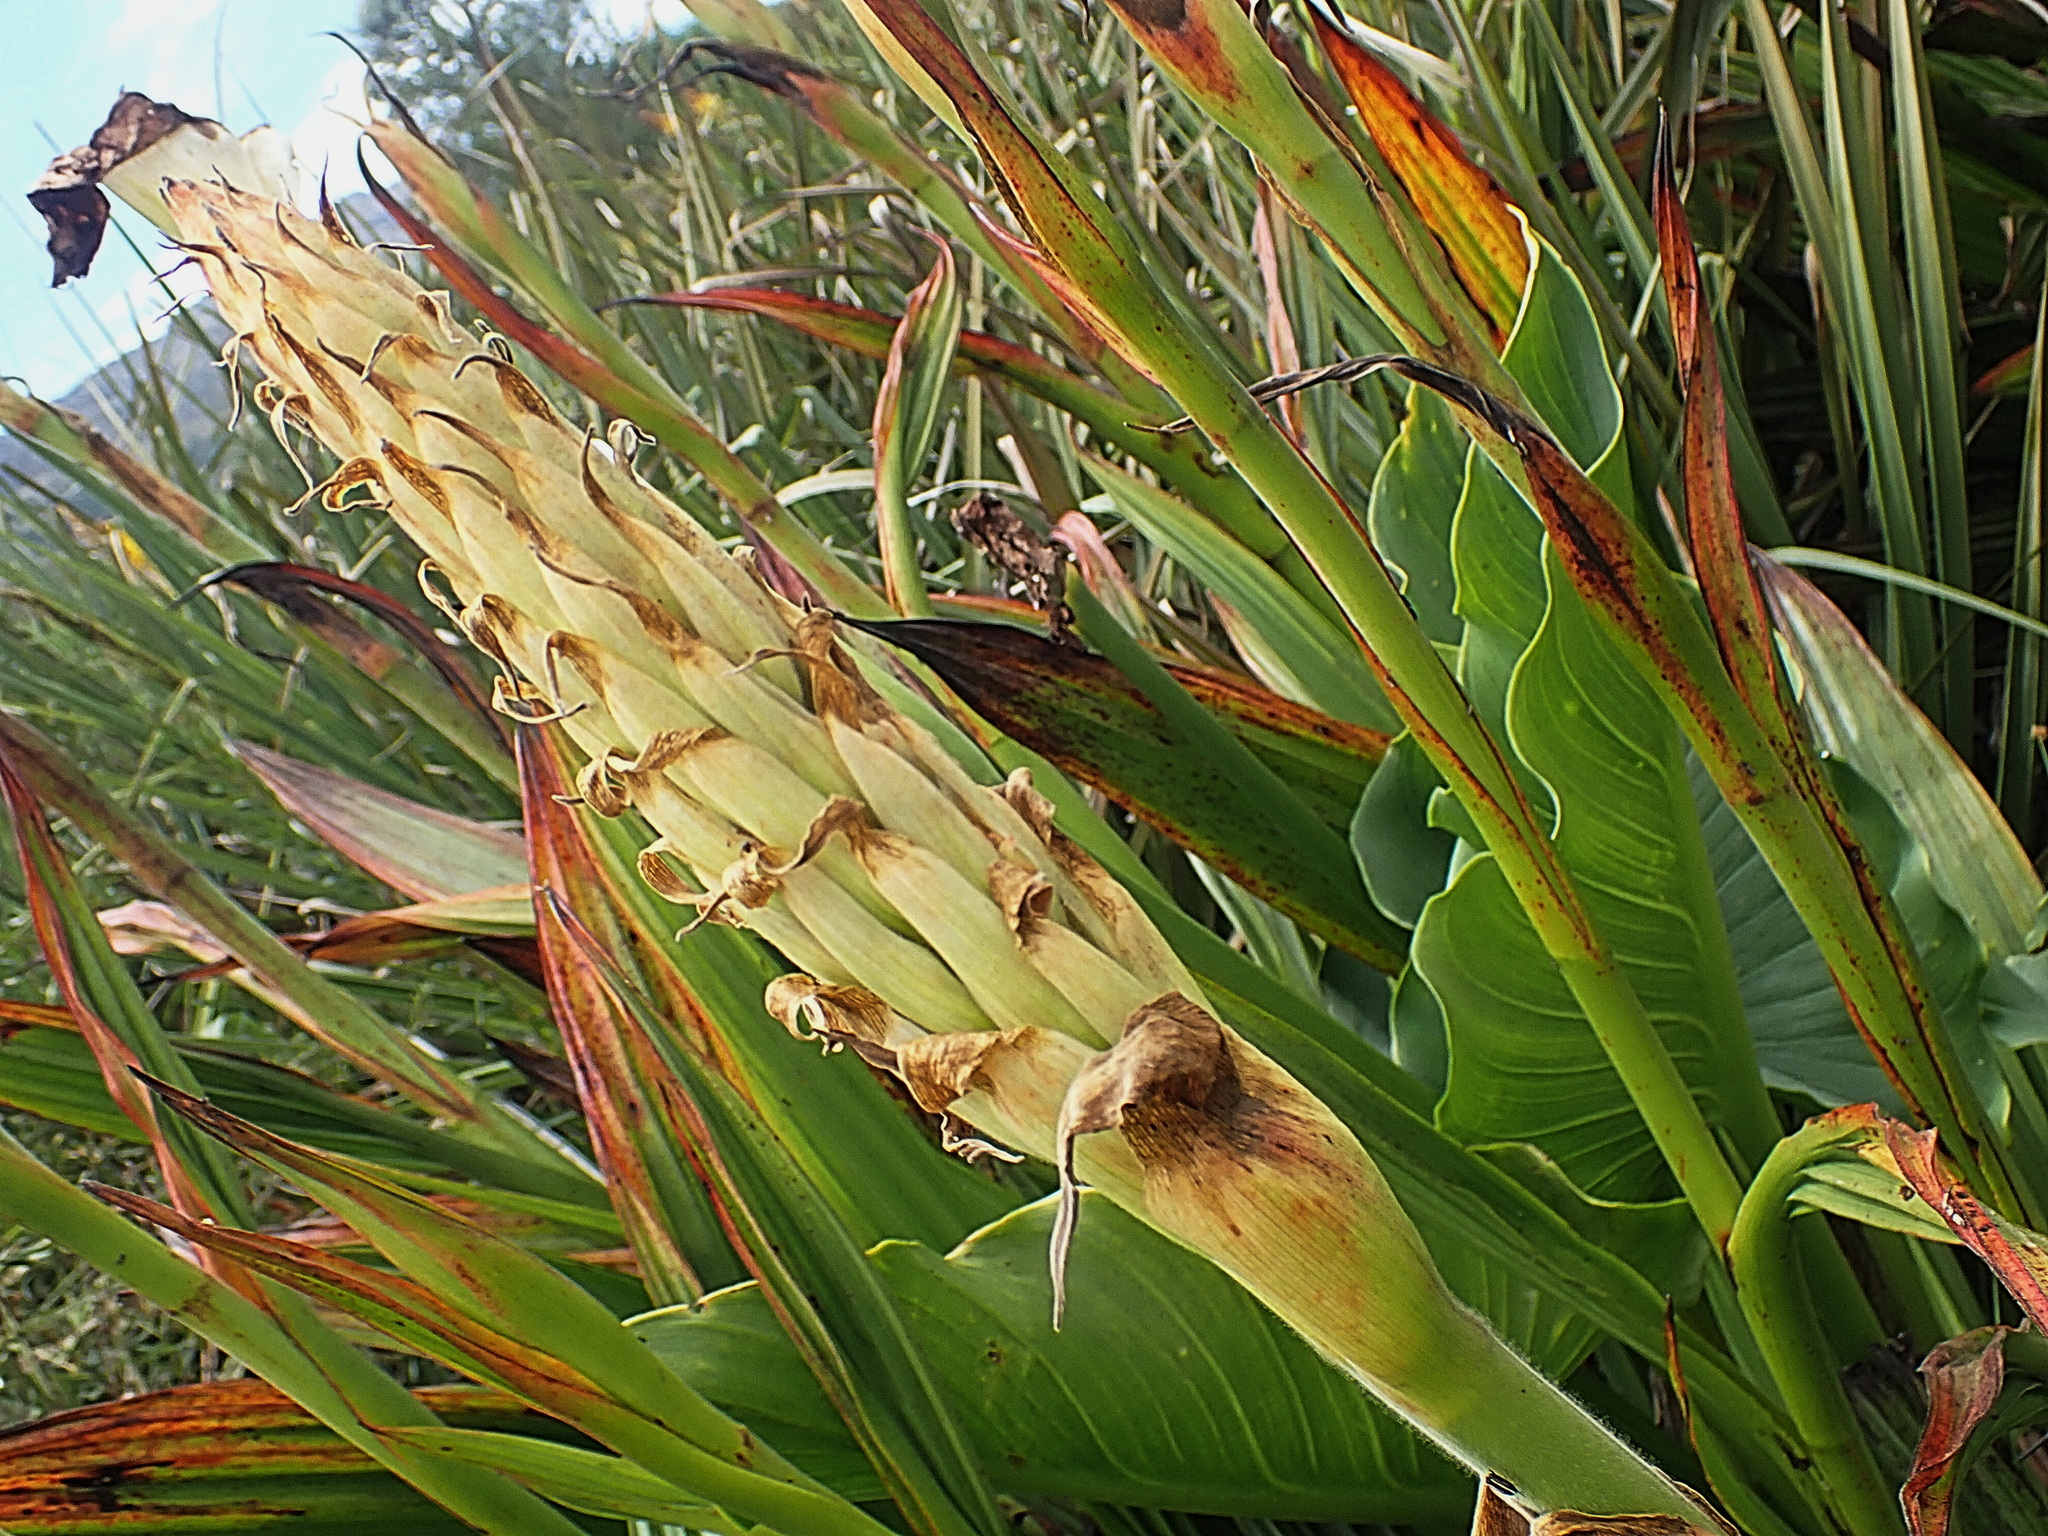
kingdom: Plantae
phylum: Tracheophyta
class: Liliopsida
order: Commelinales
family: Haemodoraceae
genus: Wachendorfia
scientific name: Wachendorfia thyrsiflora
